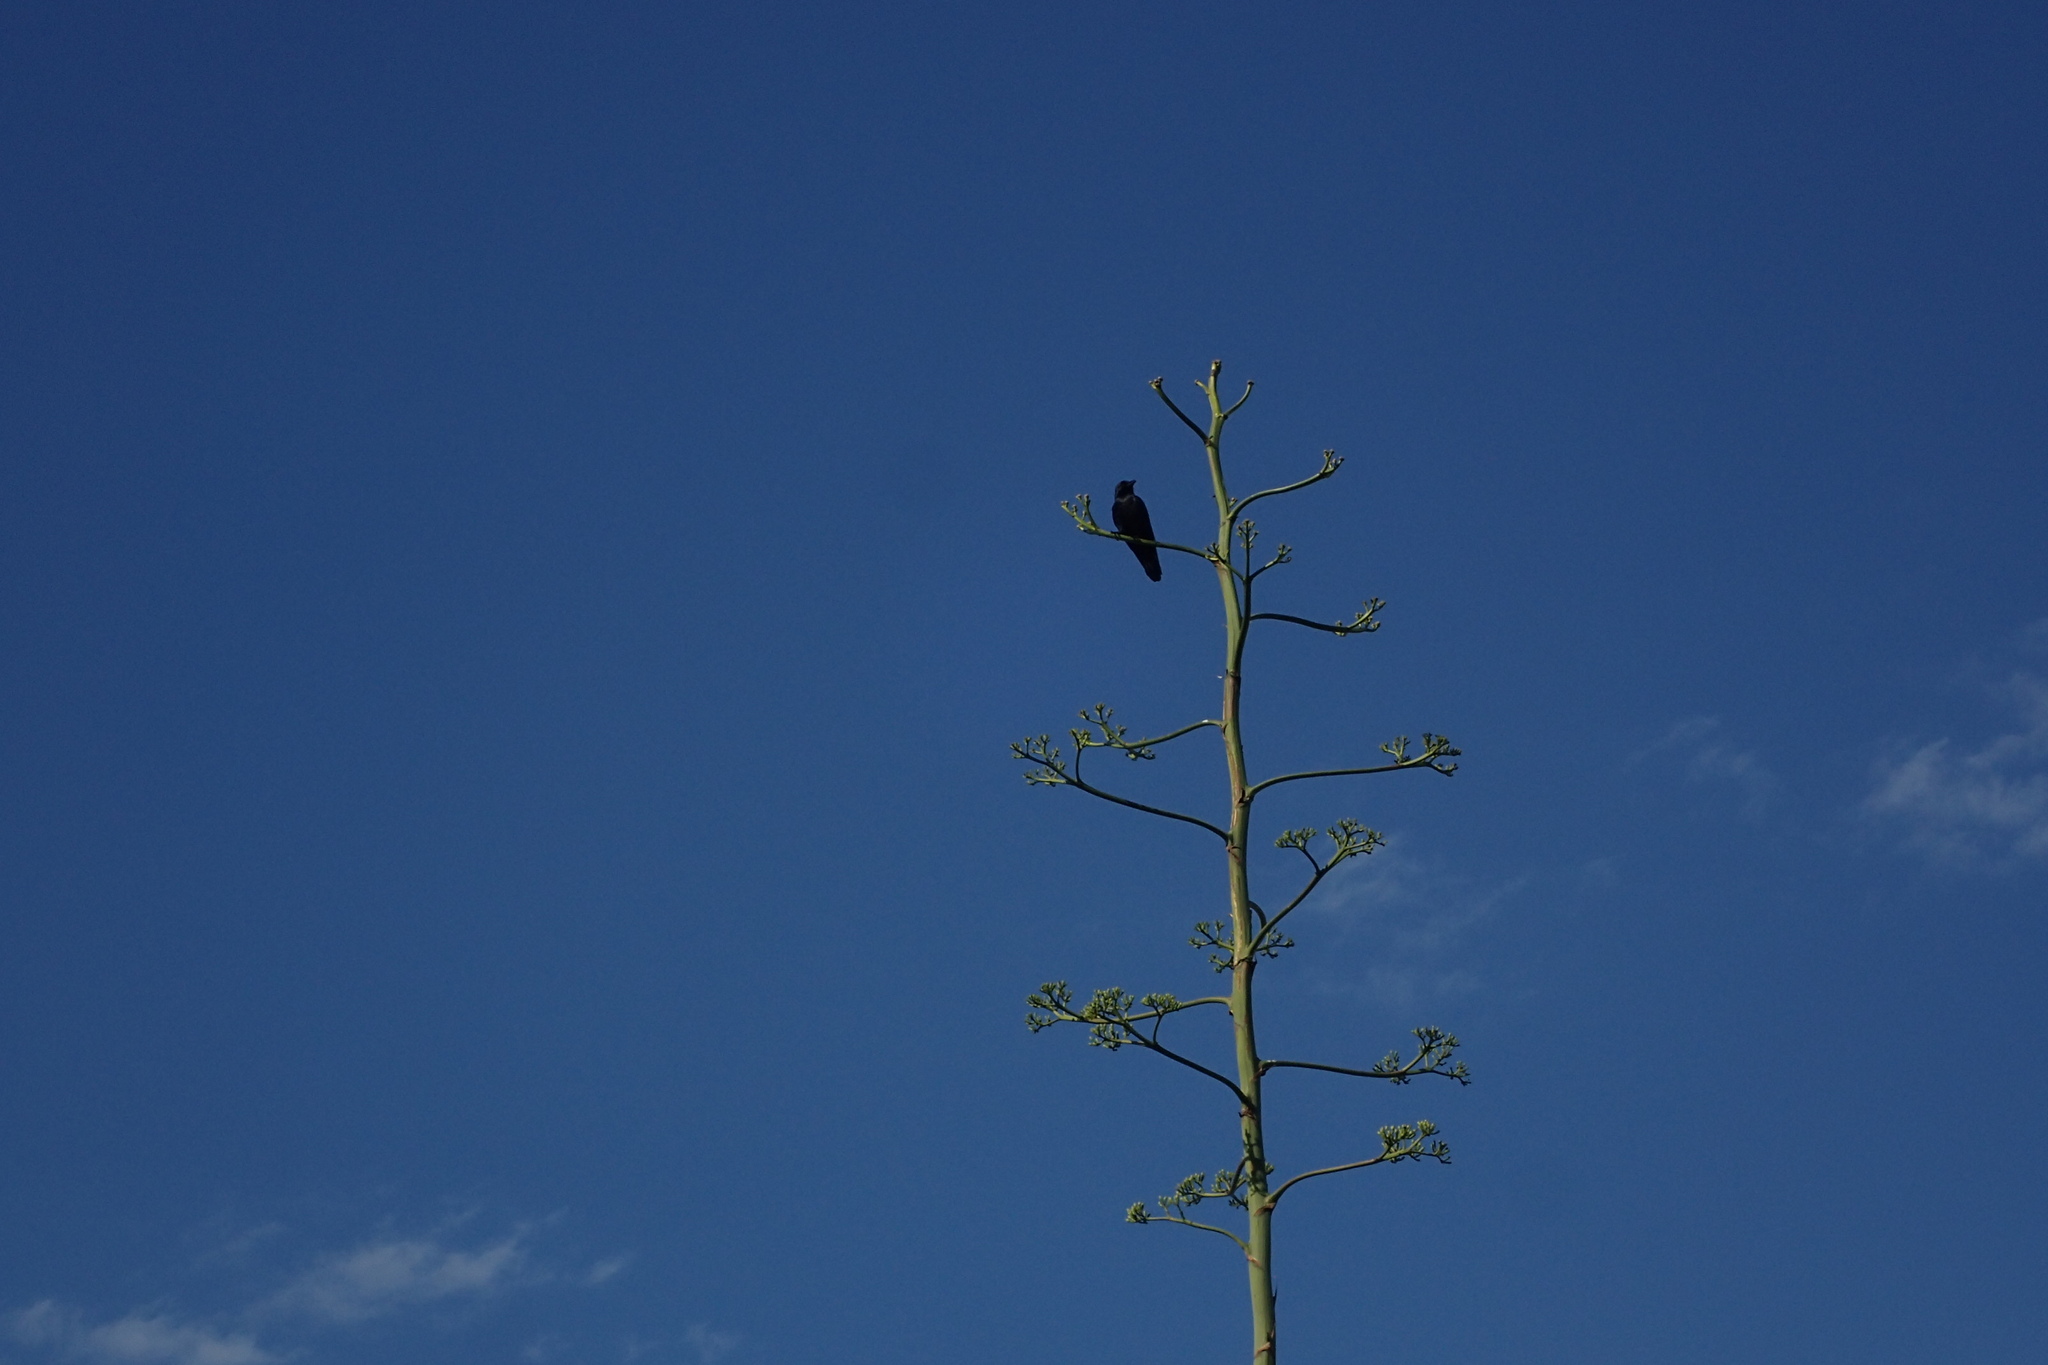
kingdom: Animalia
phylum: Chordata
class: Aves
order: Passeriformes
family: Corvidae
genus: Corvus
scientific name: Corvus ossifragus
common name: Fish crow
